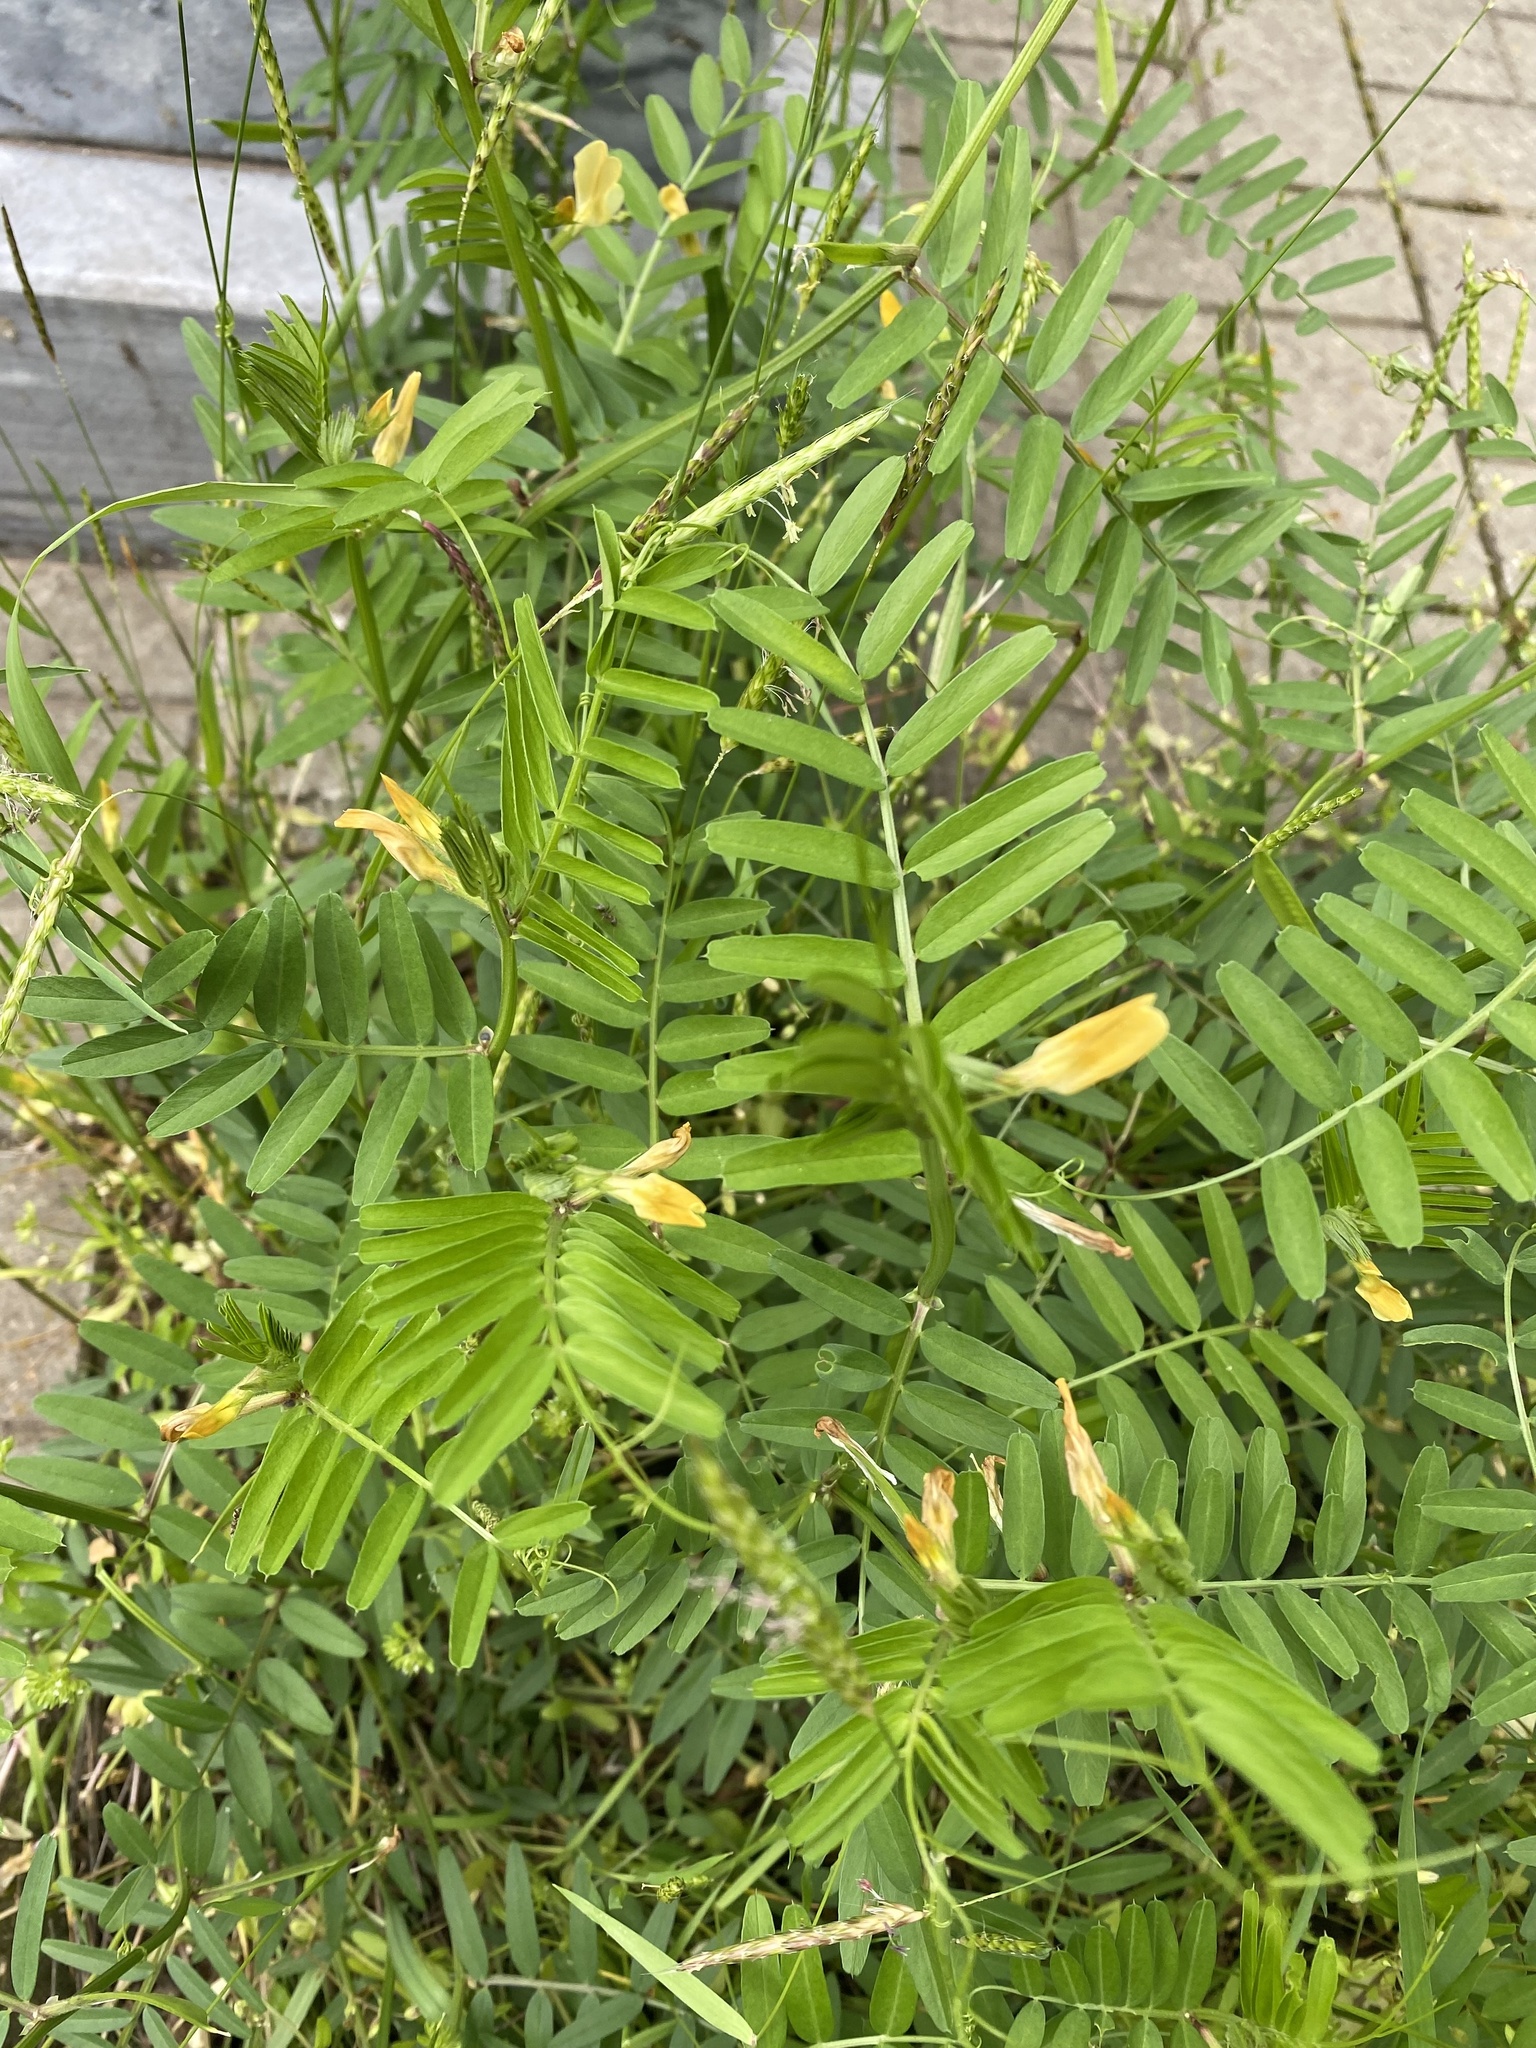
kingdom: Plantae
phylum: Tracheophyta
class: Magnoliopsida
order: Fabales
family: Fabaceae
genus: Vicia
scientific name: Vicia grandiflora
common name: Large yellow vetch
